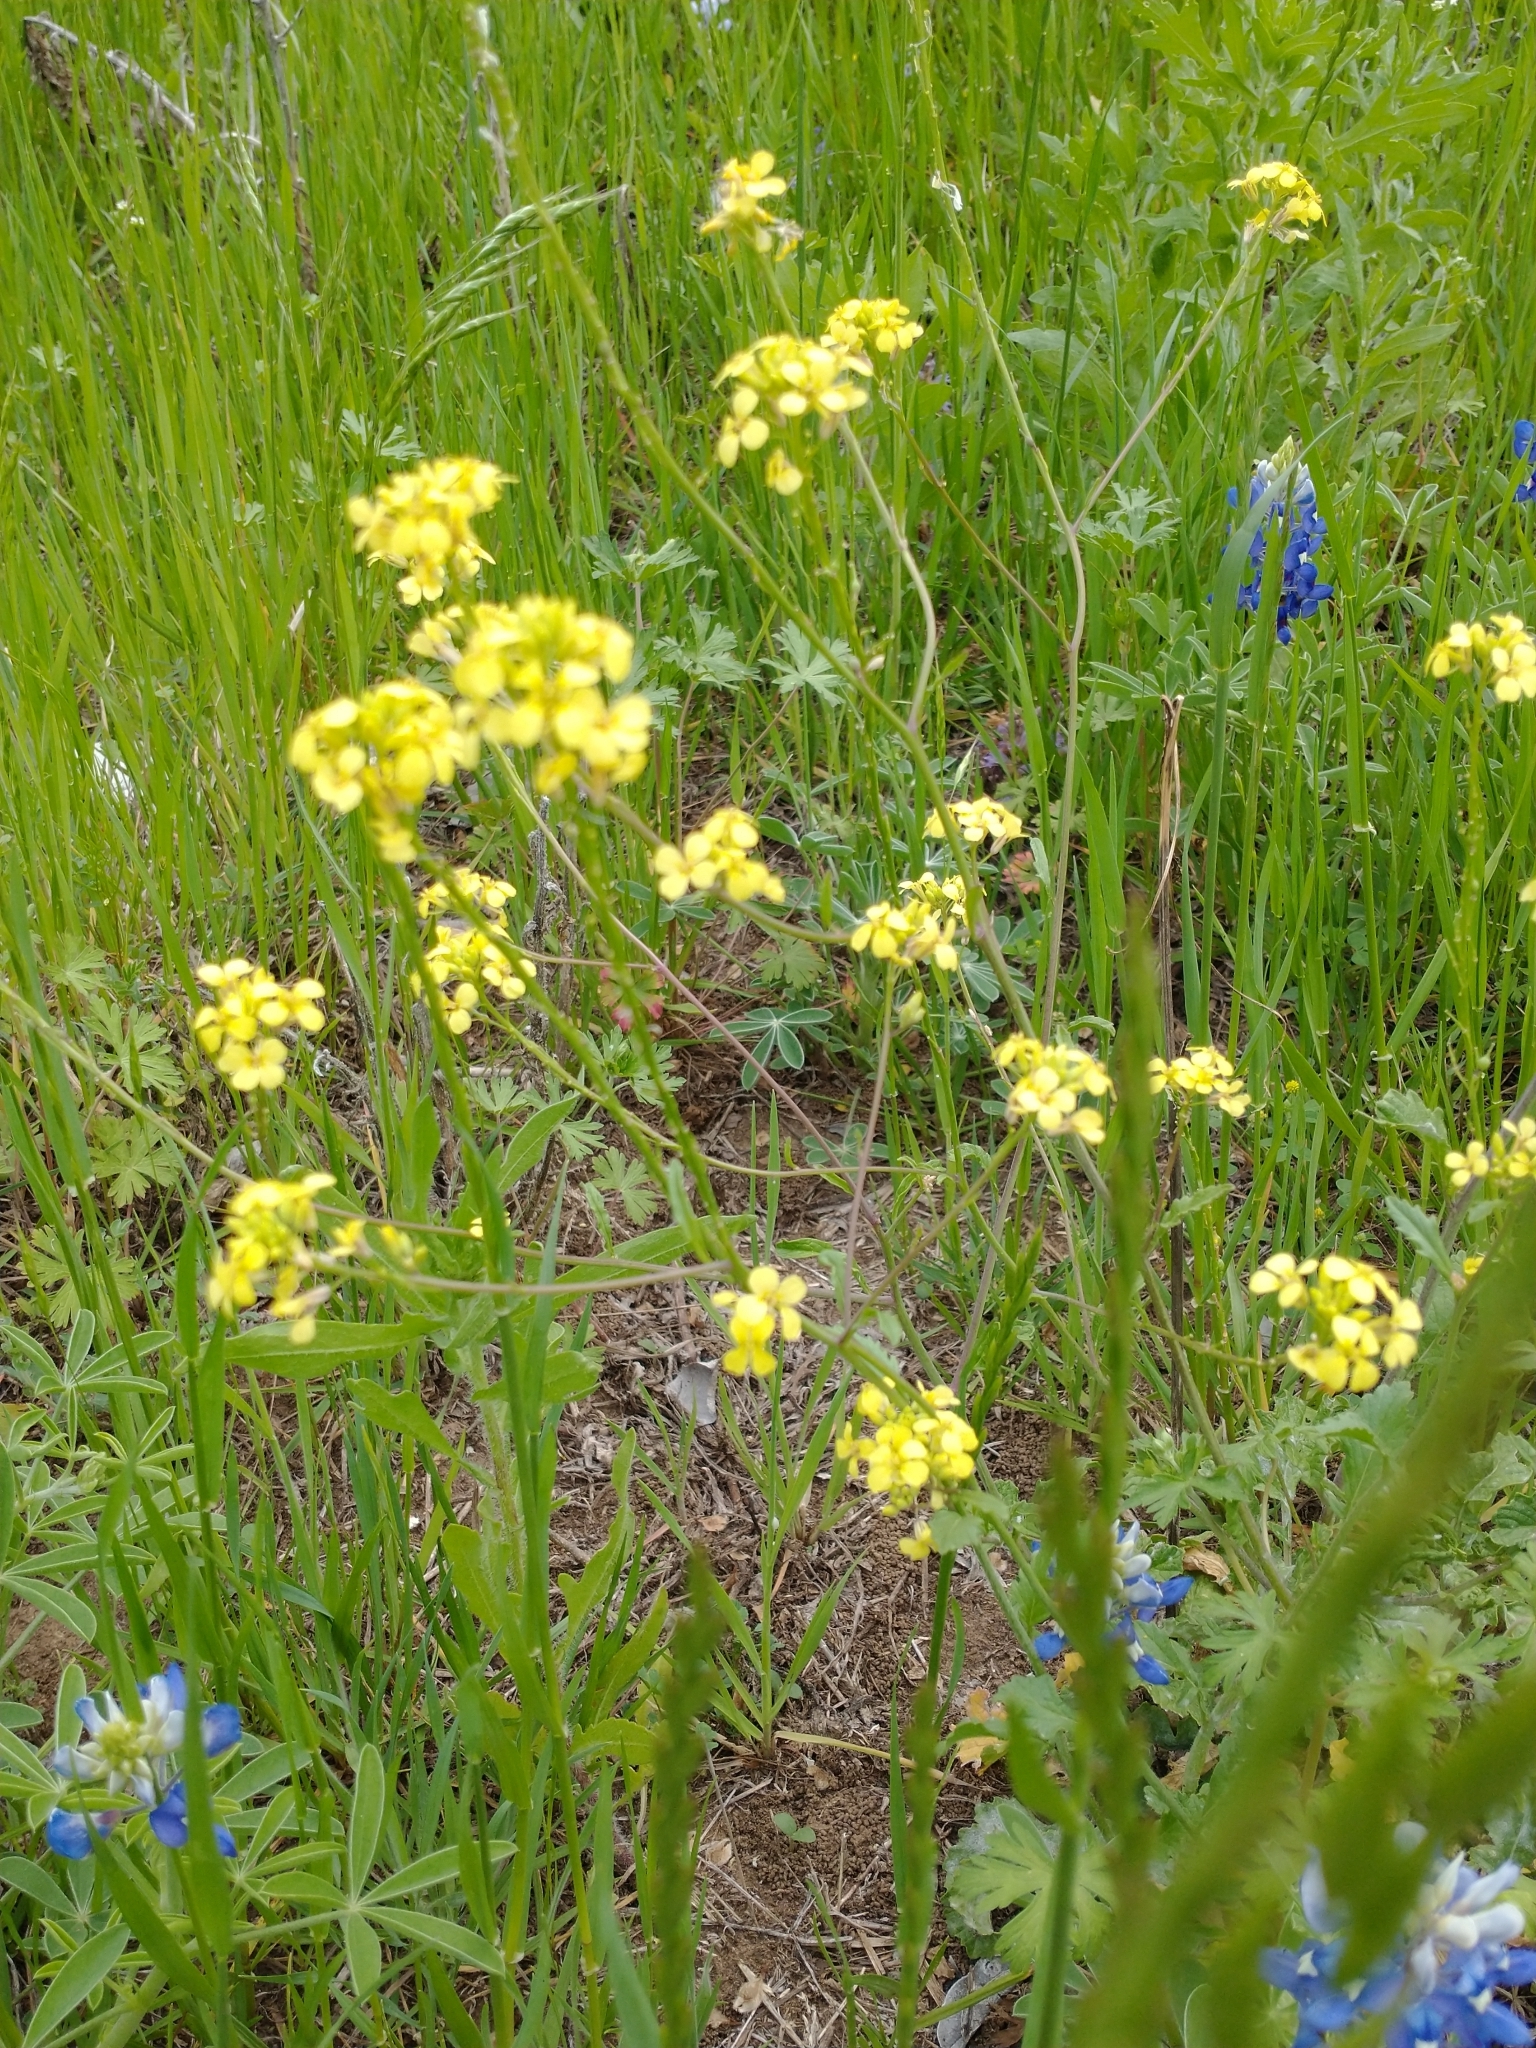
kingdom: Plantae
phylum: Tracheophyta
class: Magnoliopsida
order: Brassicales
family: Brassicaceae
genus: Rapistrum
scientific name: Rapistrum rugosum
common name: Annual bastardcabbage
